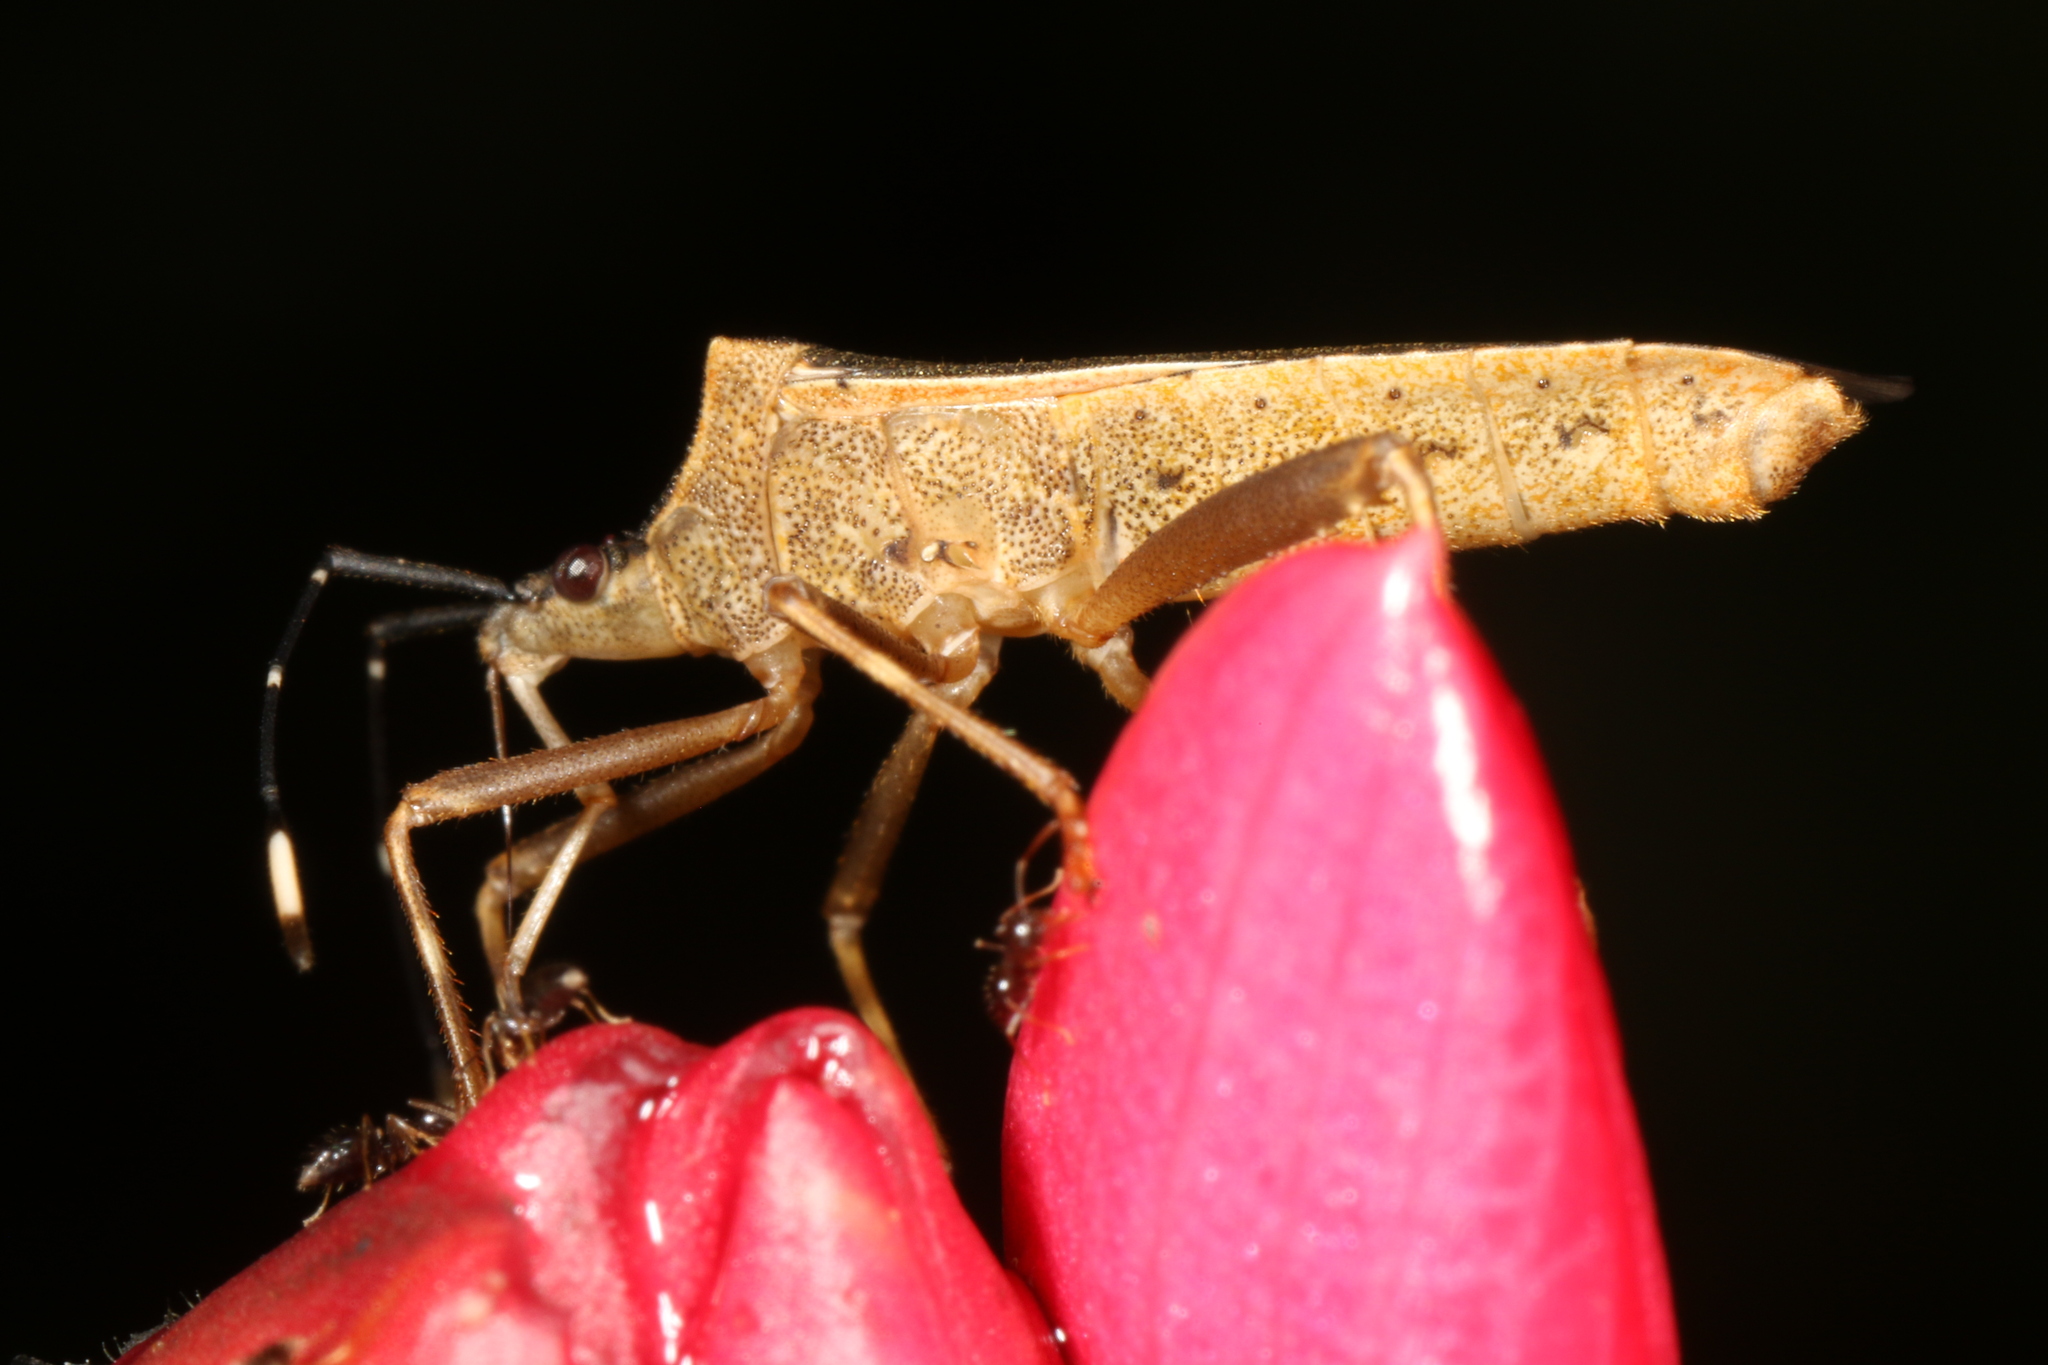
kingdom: Animalia
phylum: Arthropoda
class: Insecta
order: Hemiptera
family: Coreidae
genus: Leptoscelis
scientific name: Leptoscelis elongator
